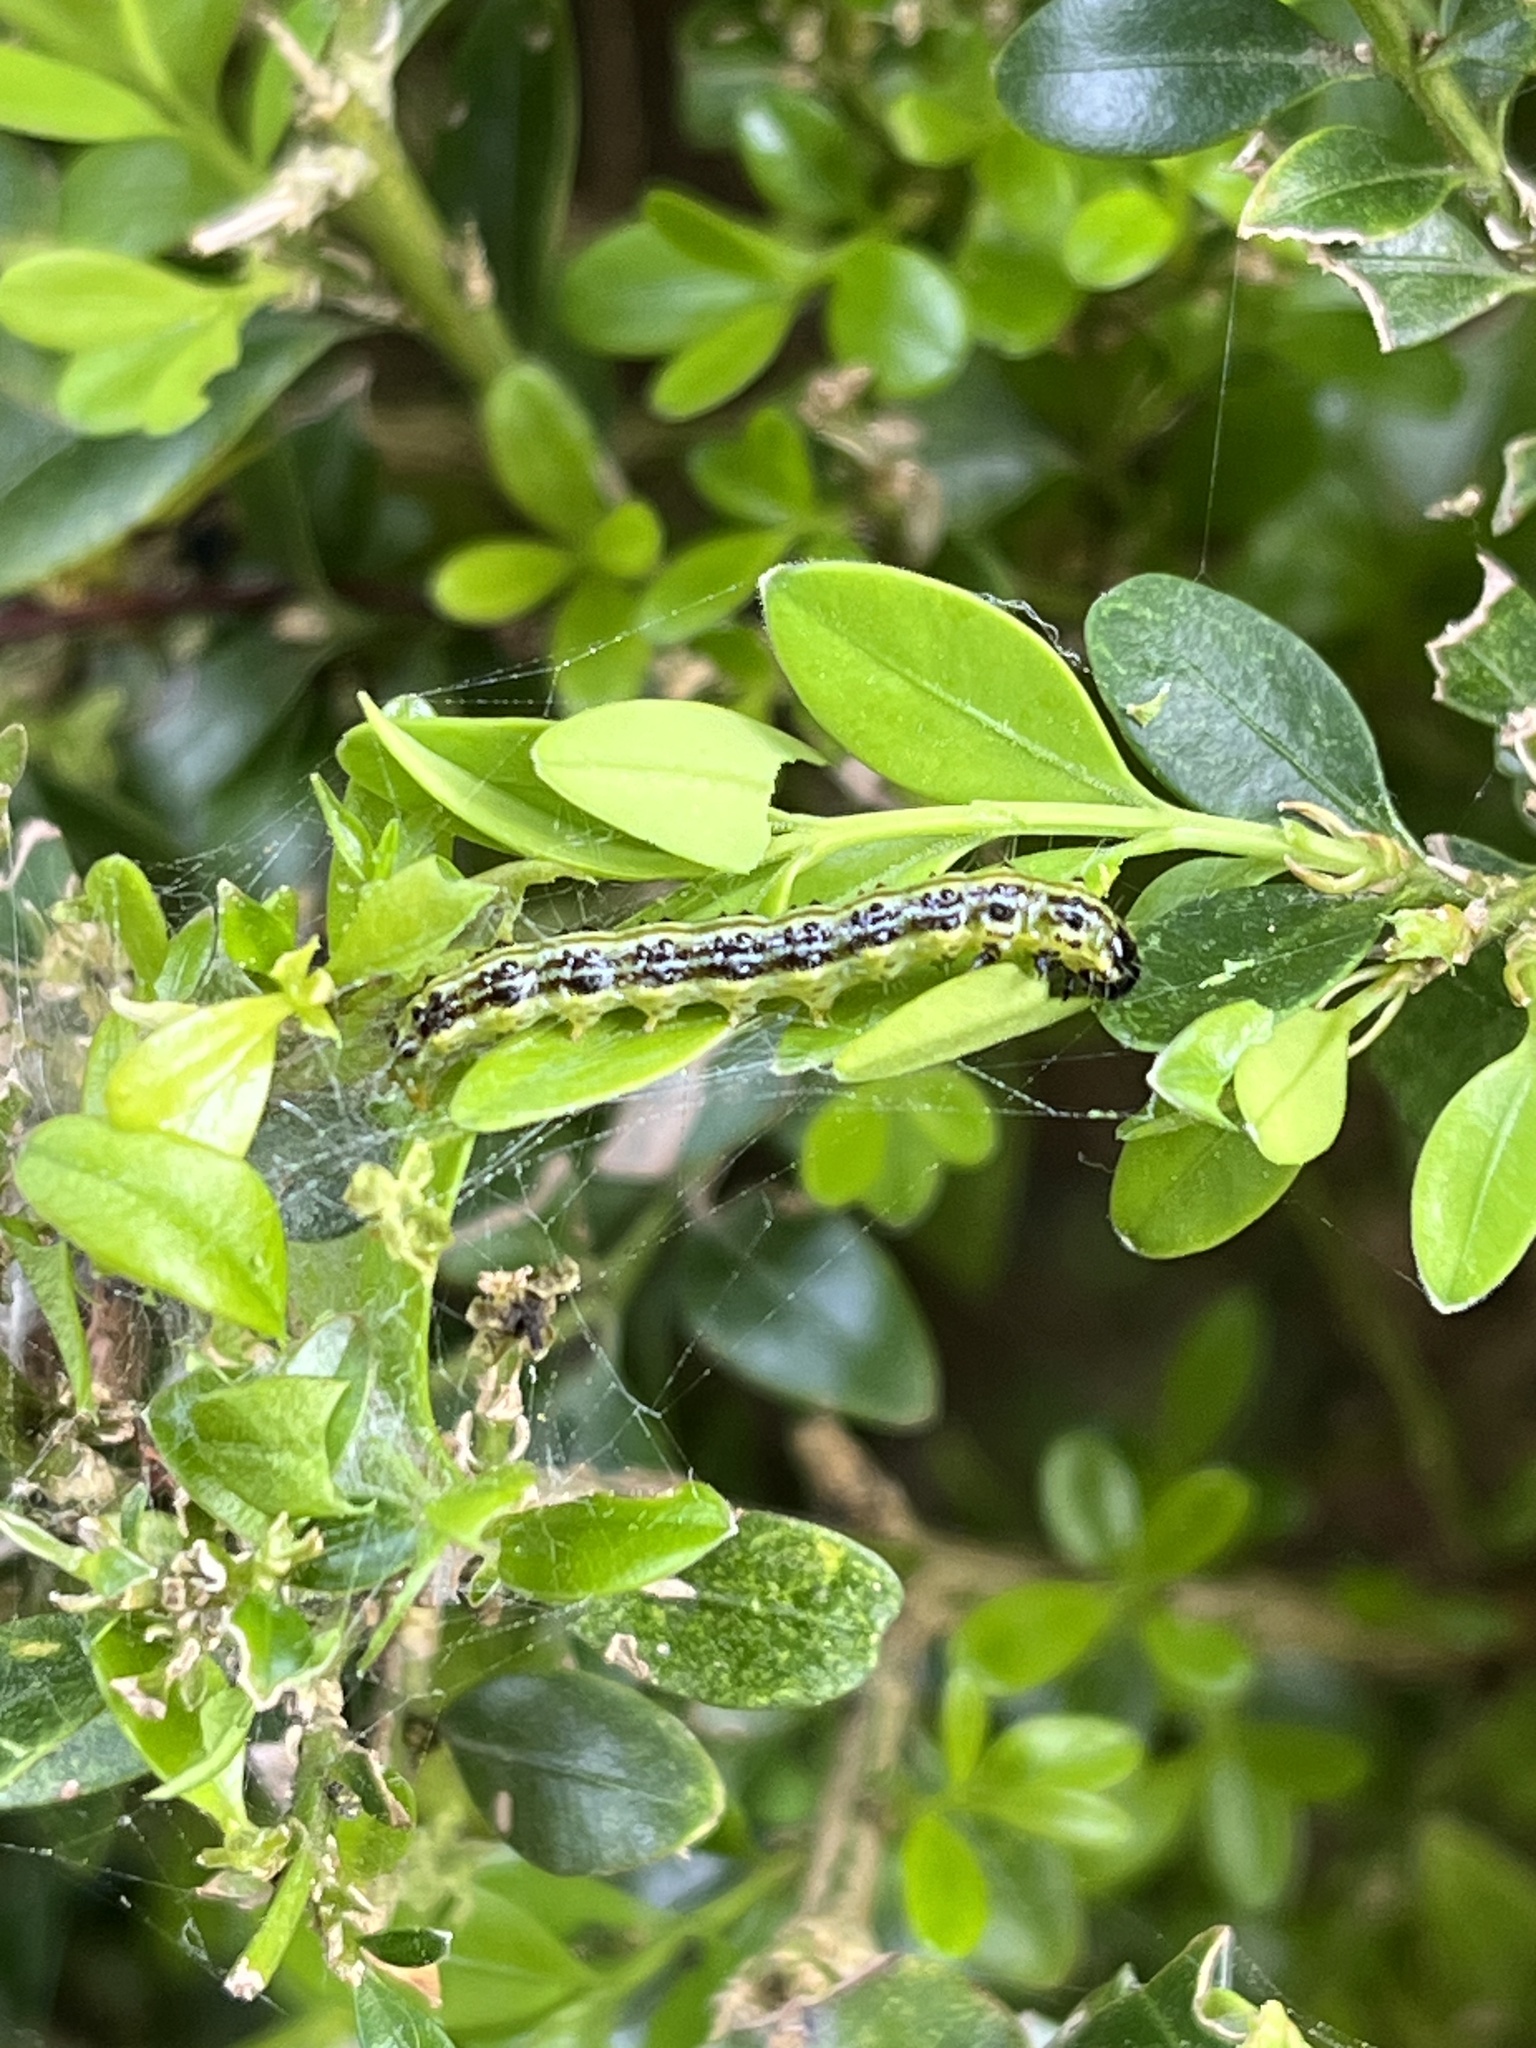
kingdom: Animalia
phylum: Arthropoda
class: Insecta
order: Lepidoptera
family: Crambidae
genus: Cydalima
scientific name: Cydalima perspectalis
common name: Box tree moth
